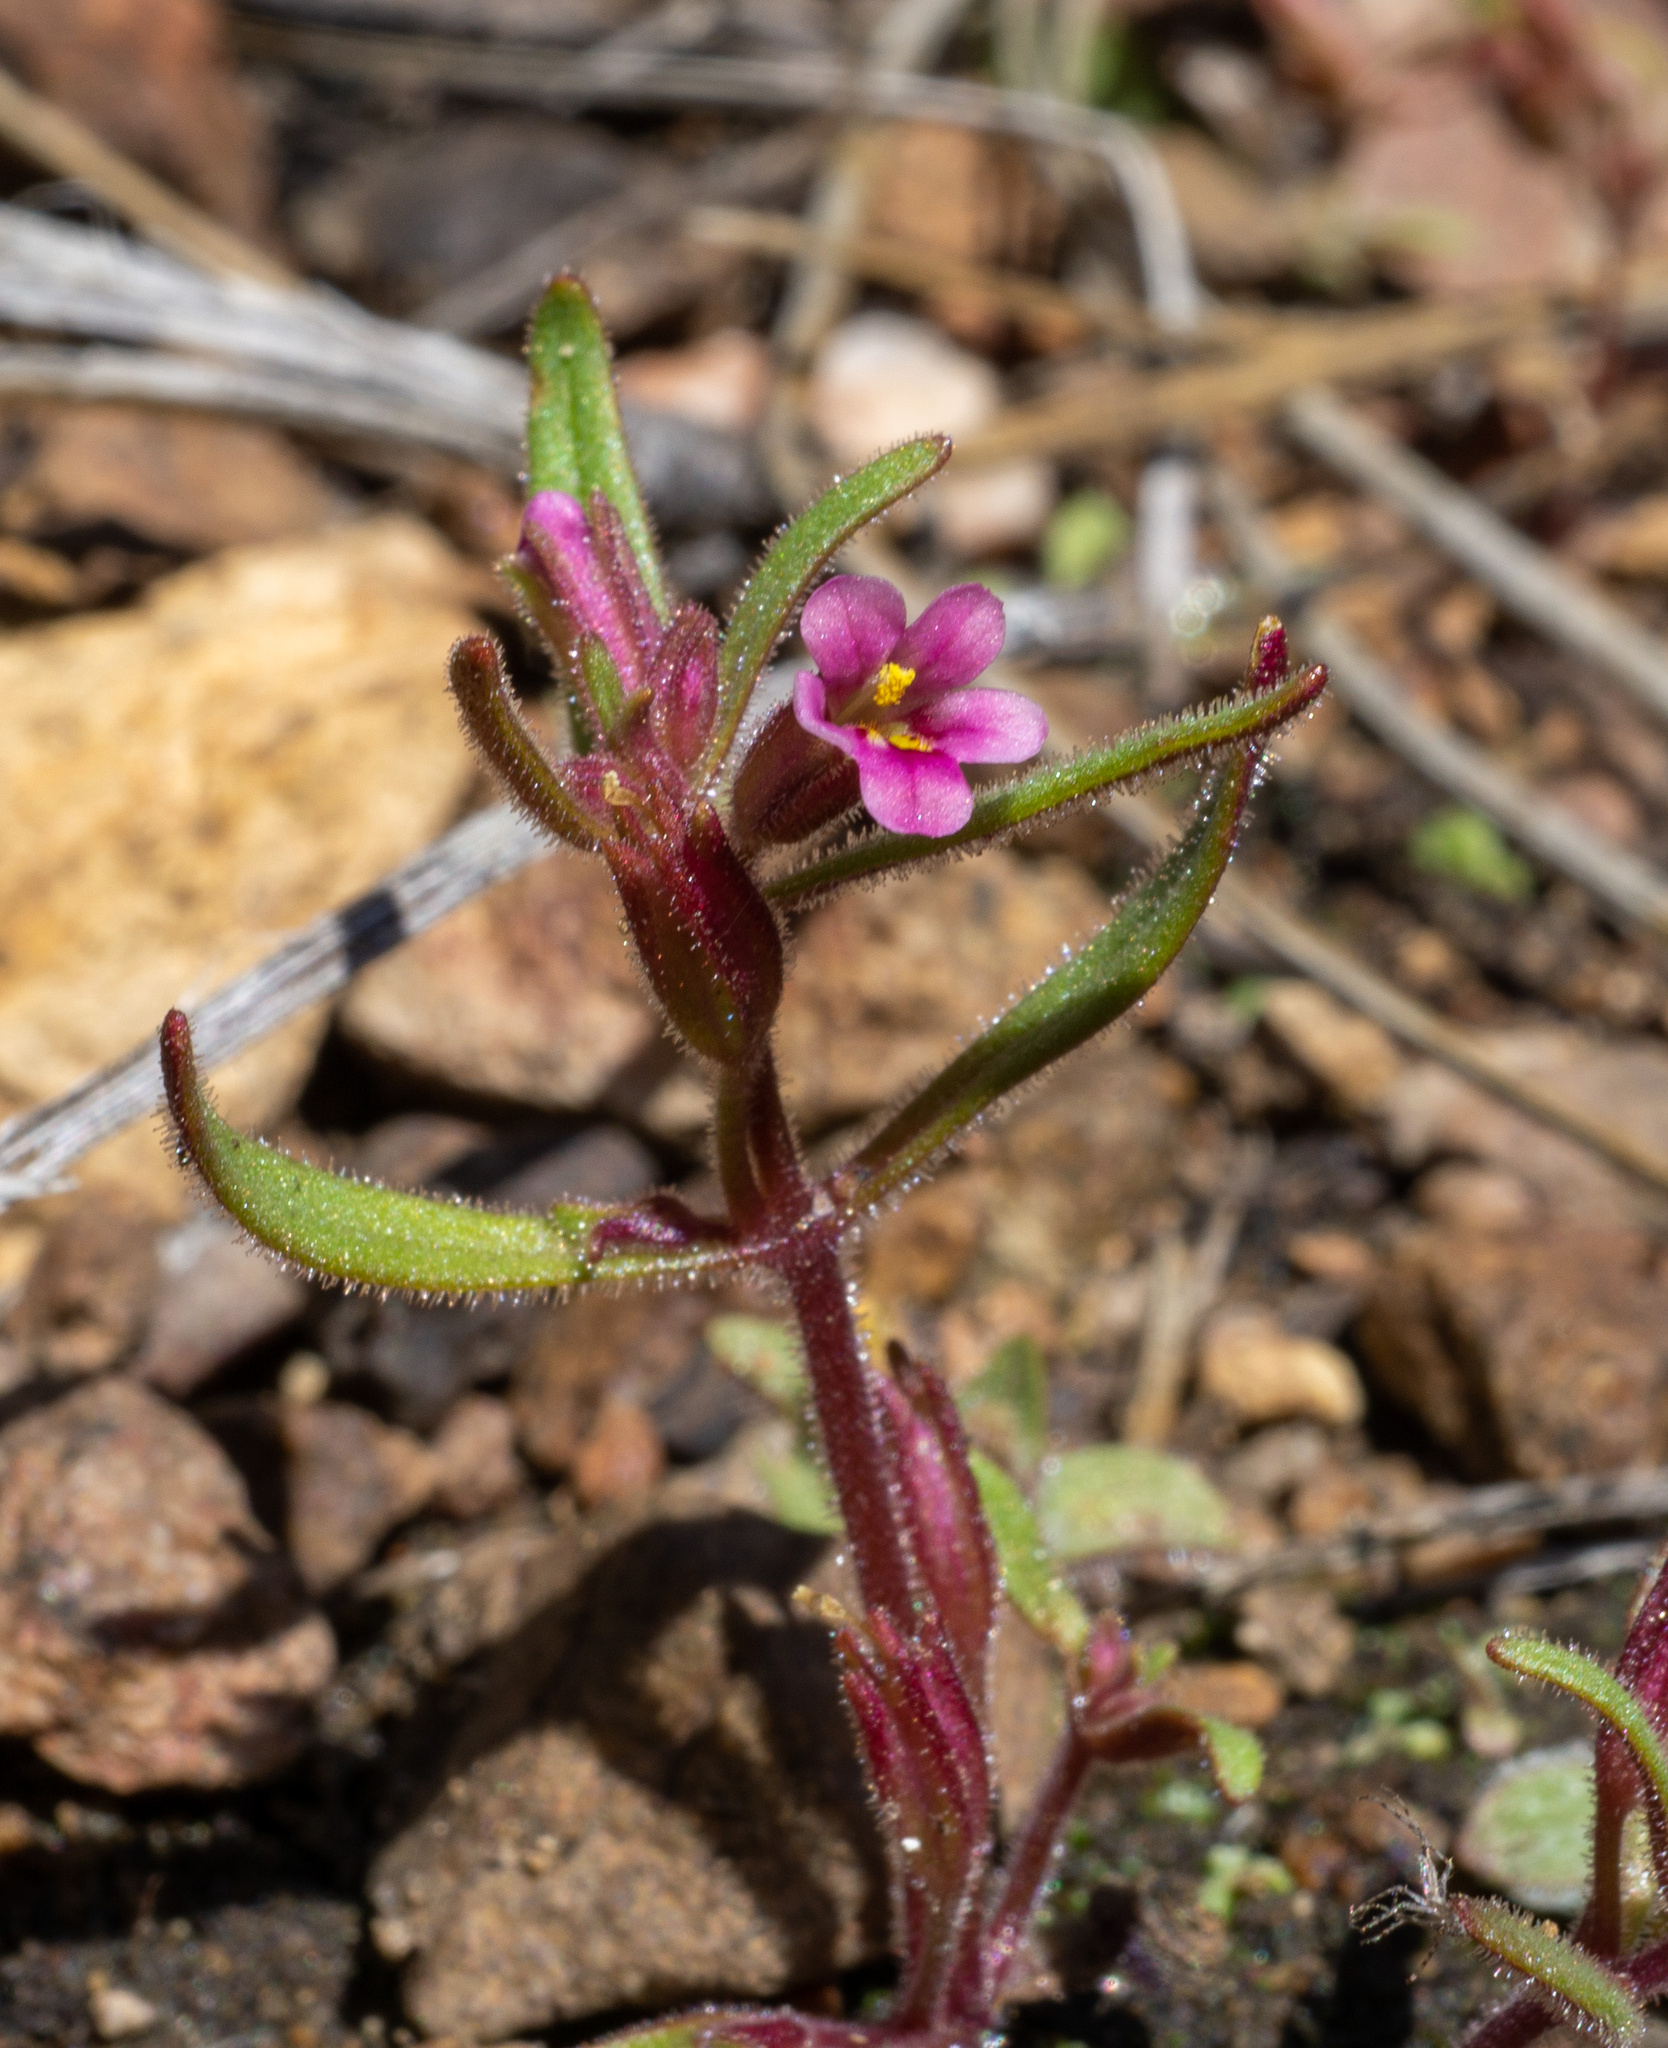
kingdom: Plantae
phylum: Tracheophyta
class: Magnoliopsida
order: Lamiales
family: Phrymaceae
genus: Erythranthe
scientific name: Erythranthe breweri
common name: Brewer's monkeyflower
